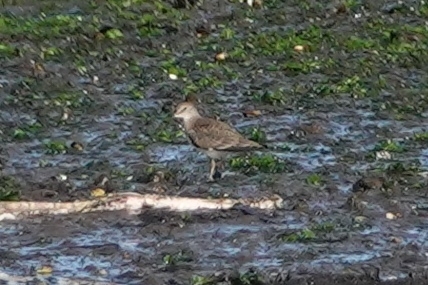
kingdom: Animalia
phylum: Chordata
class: Aves
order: Charadriiformes
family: Scolopacidae
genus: Actitis
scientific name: Actitis hypoleucos
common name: Common sandpiper
